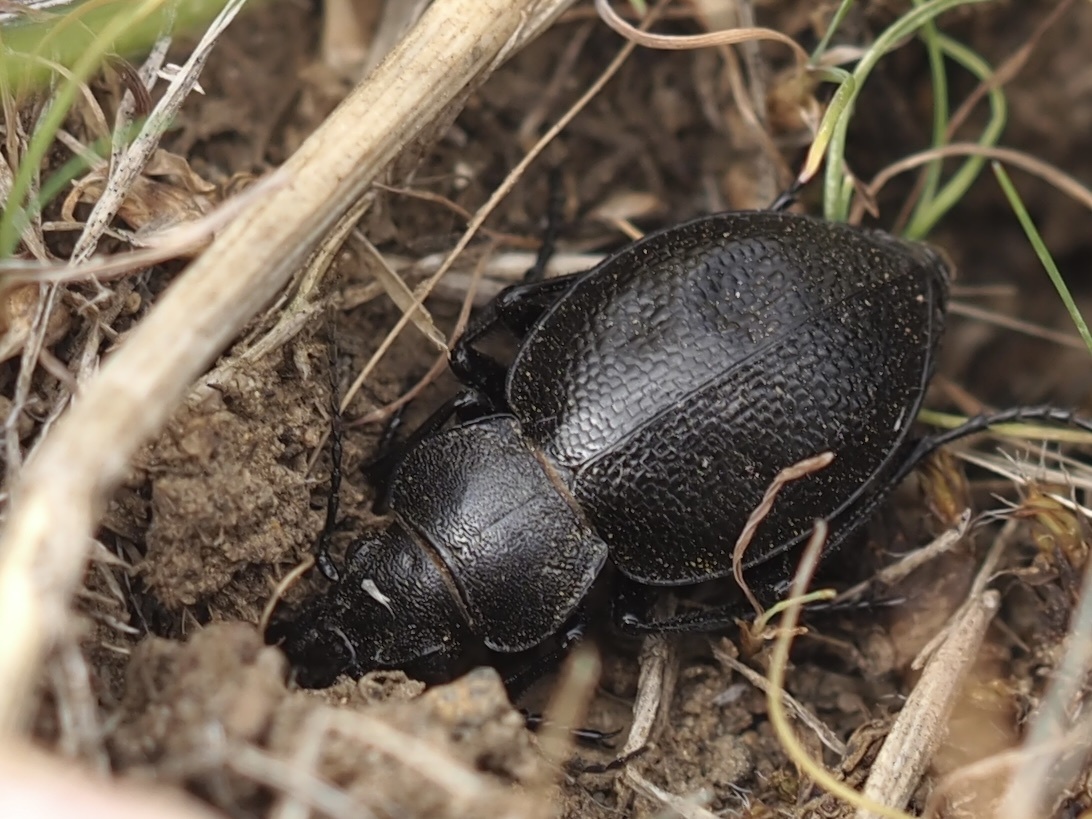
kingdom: Animalia
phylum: Arthropoda
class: Insecta
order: Coleoptera
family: Carabidae
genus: Calosoma
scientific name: Calosoma luxatum
